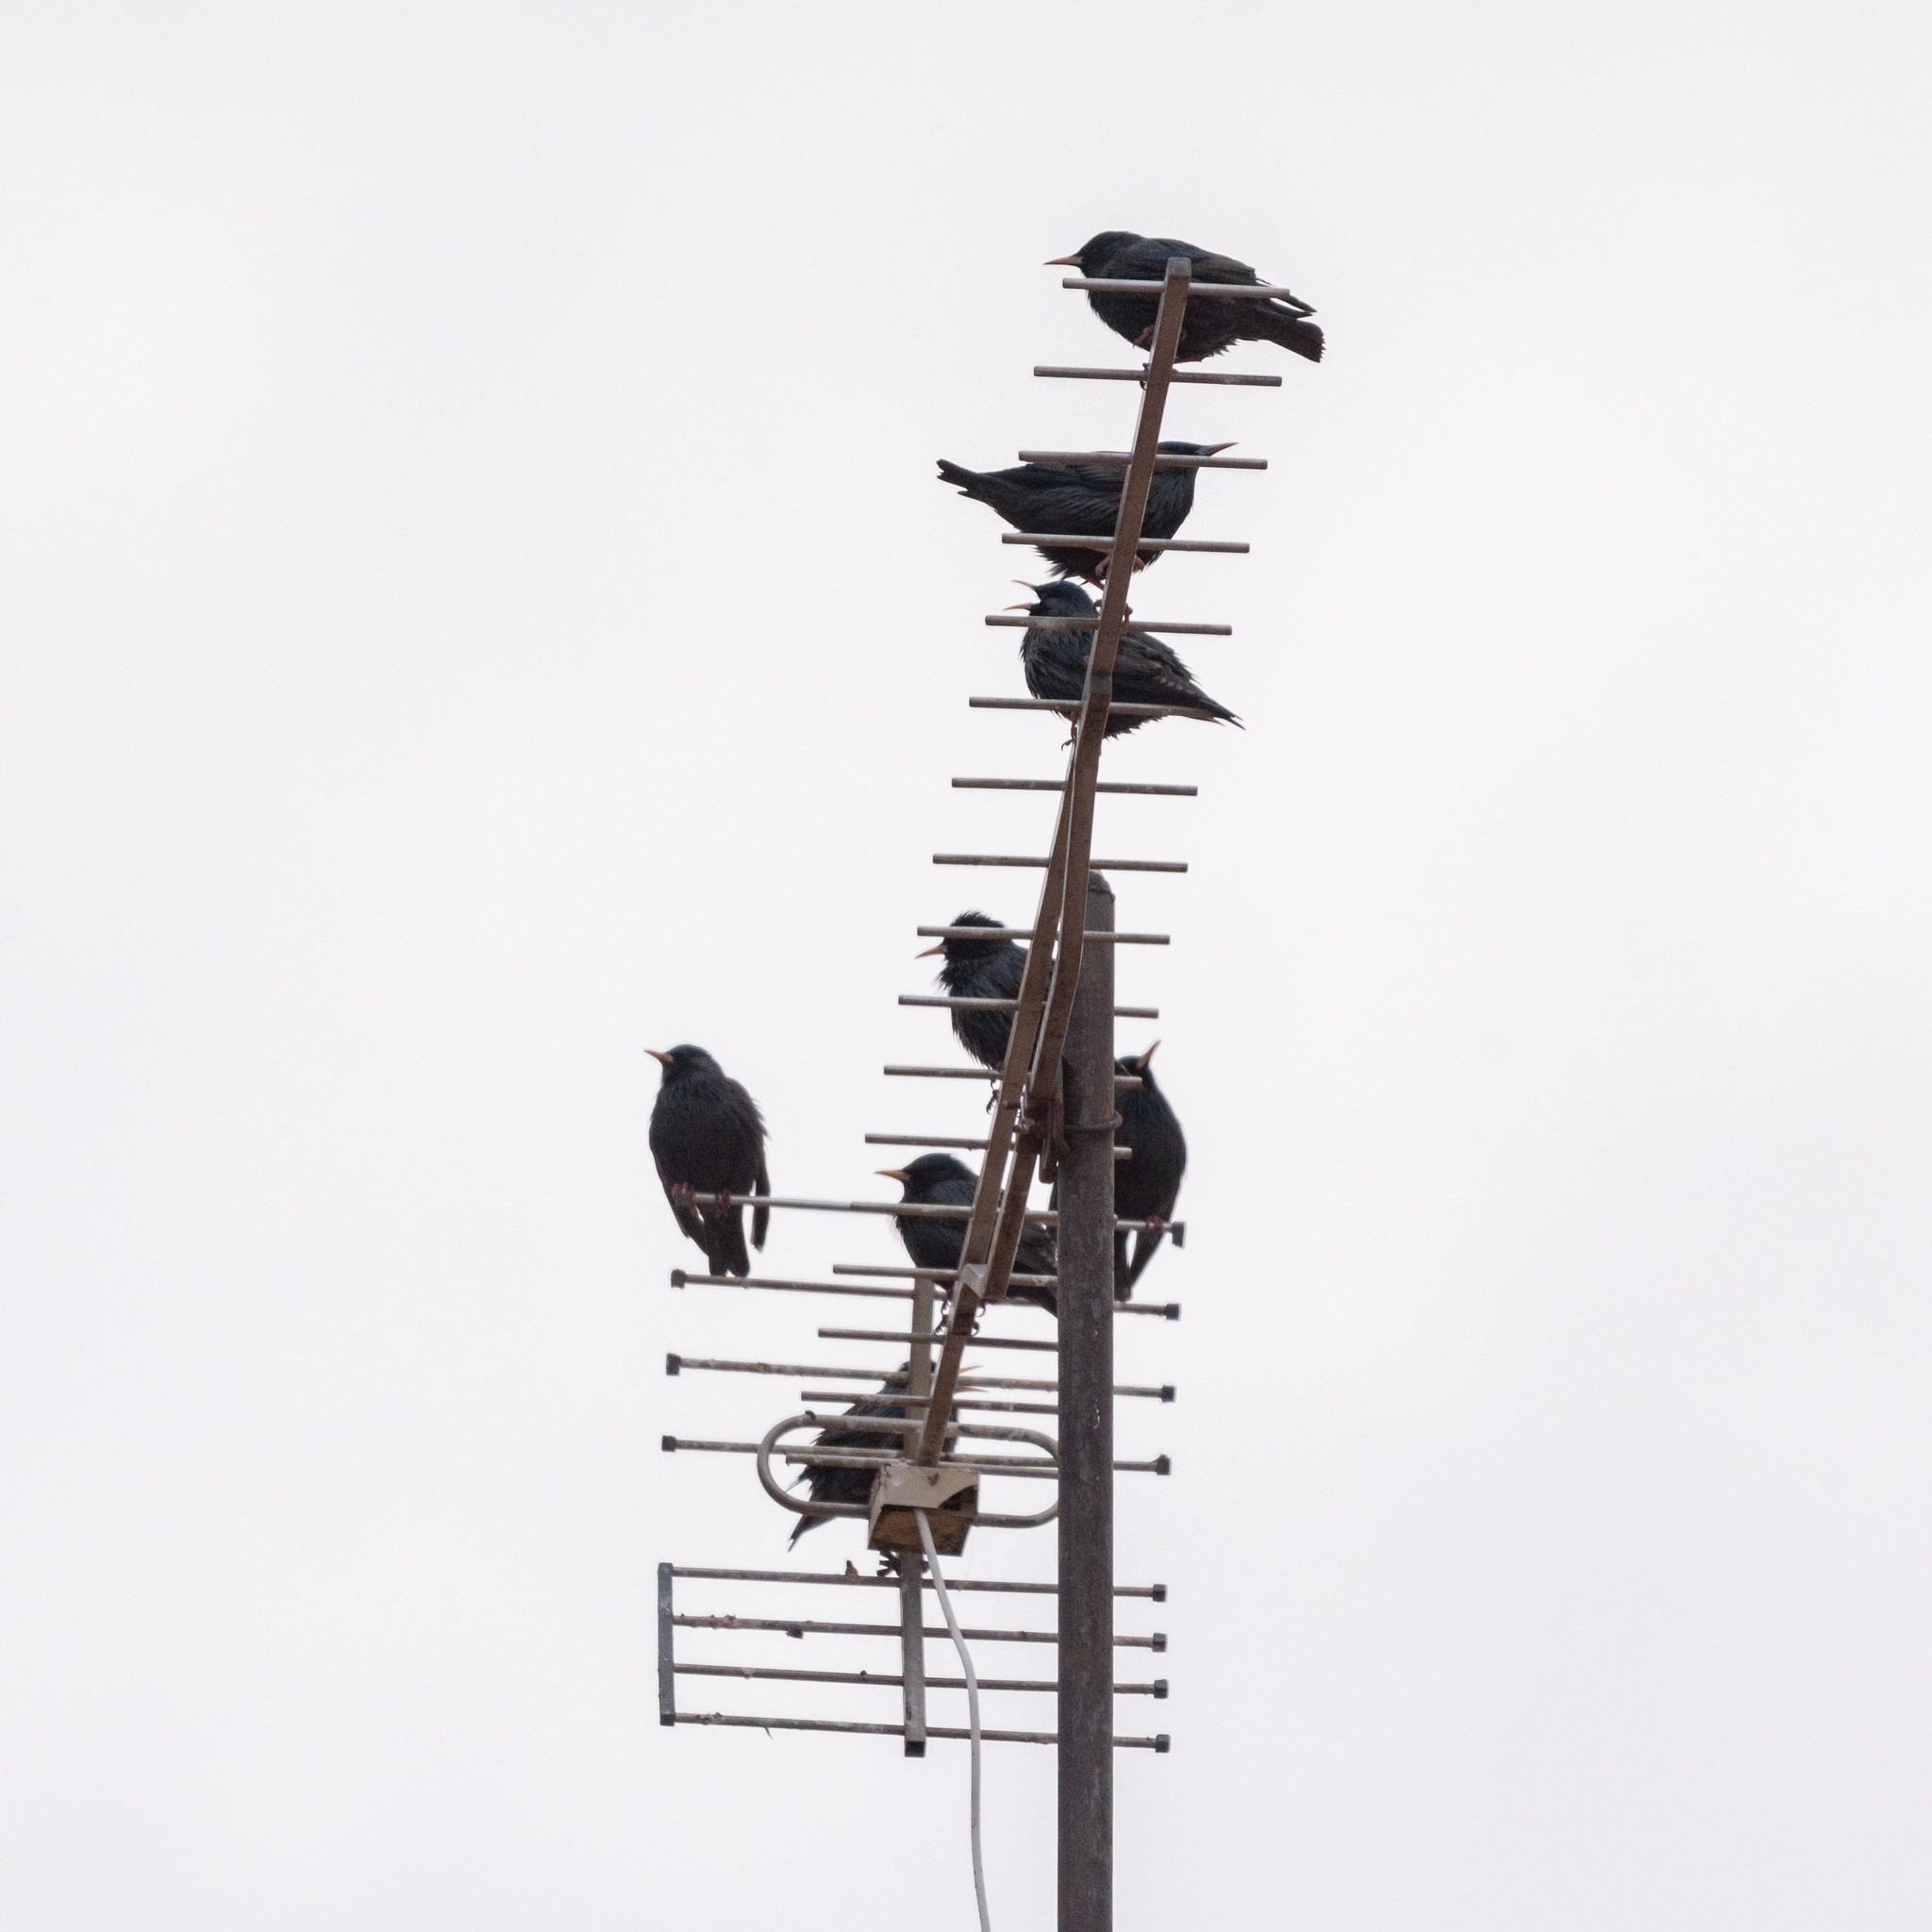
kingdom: Animalia
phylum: Chordata
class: Aves
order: Passeriformes
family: Sturnidae
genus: Sturnus
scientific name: Sturnus unicolor
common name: Spotless starling
